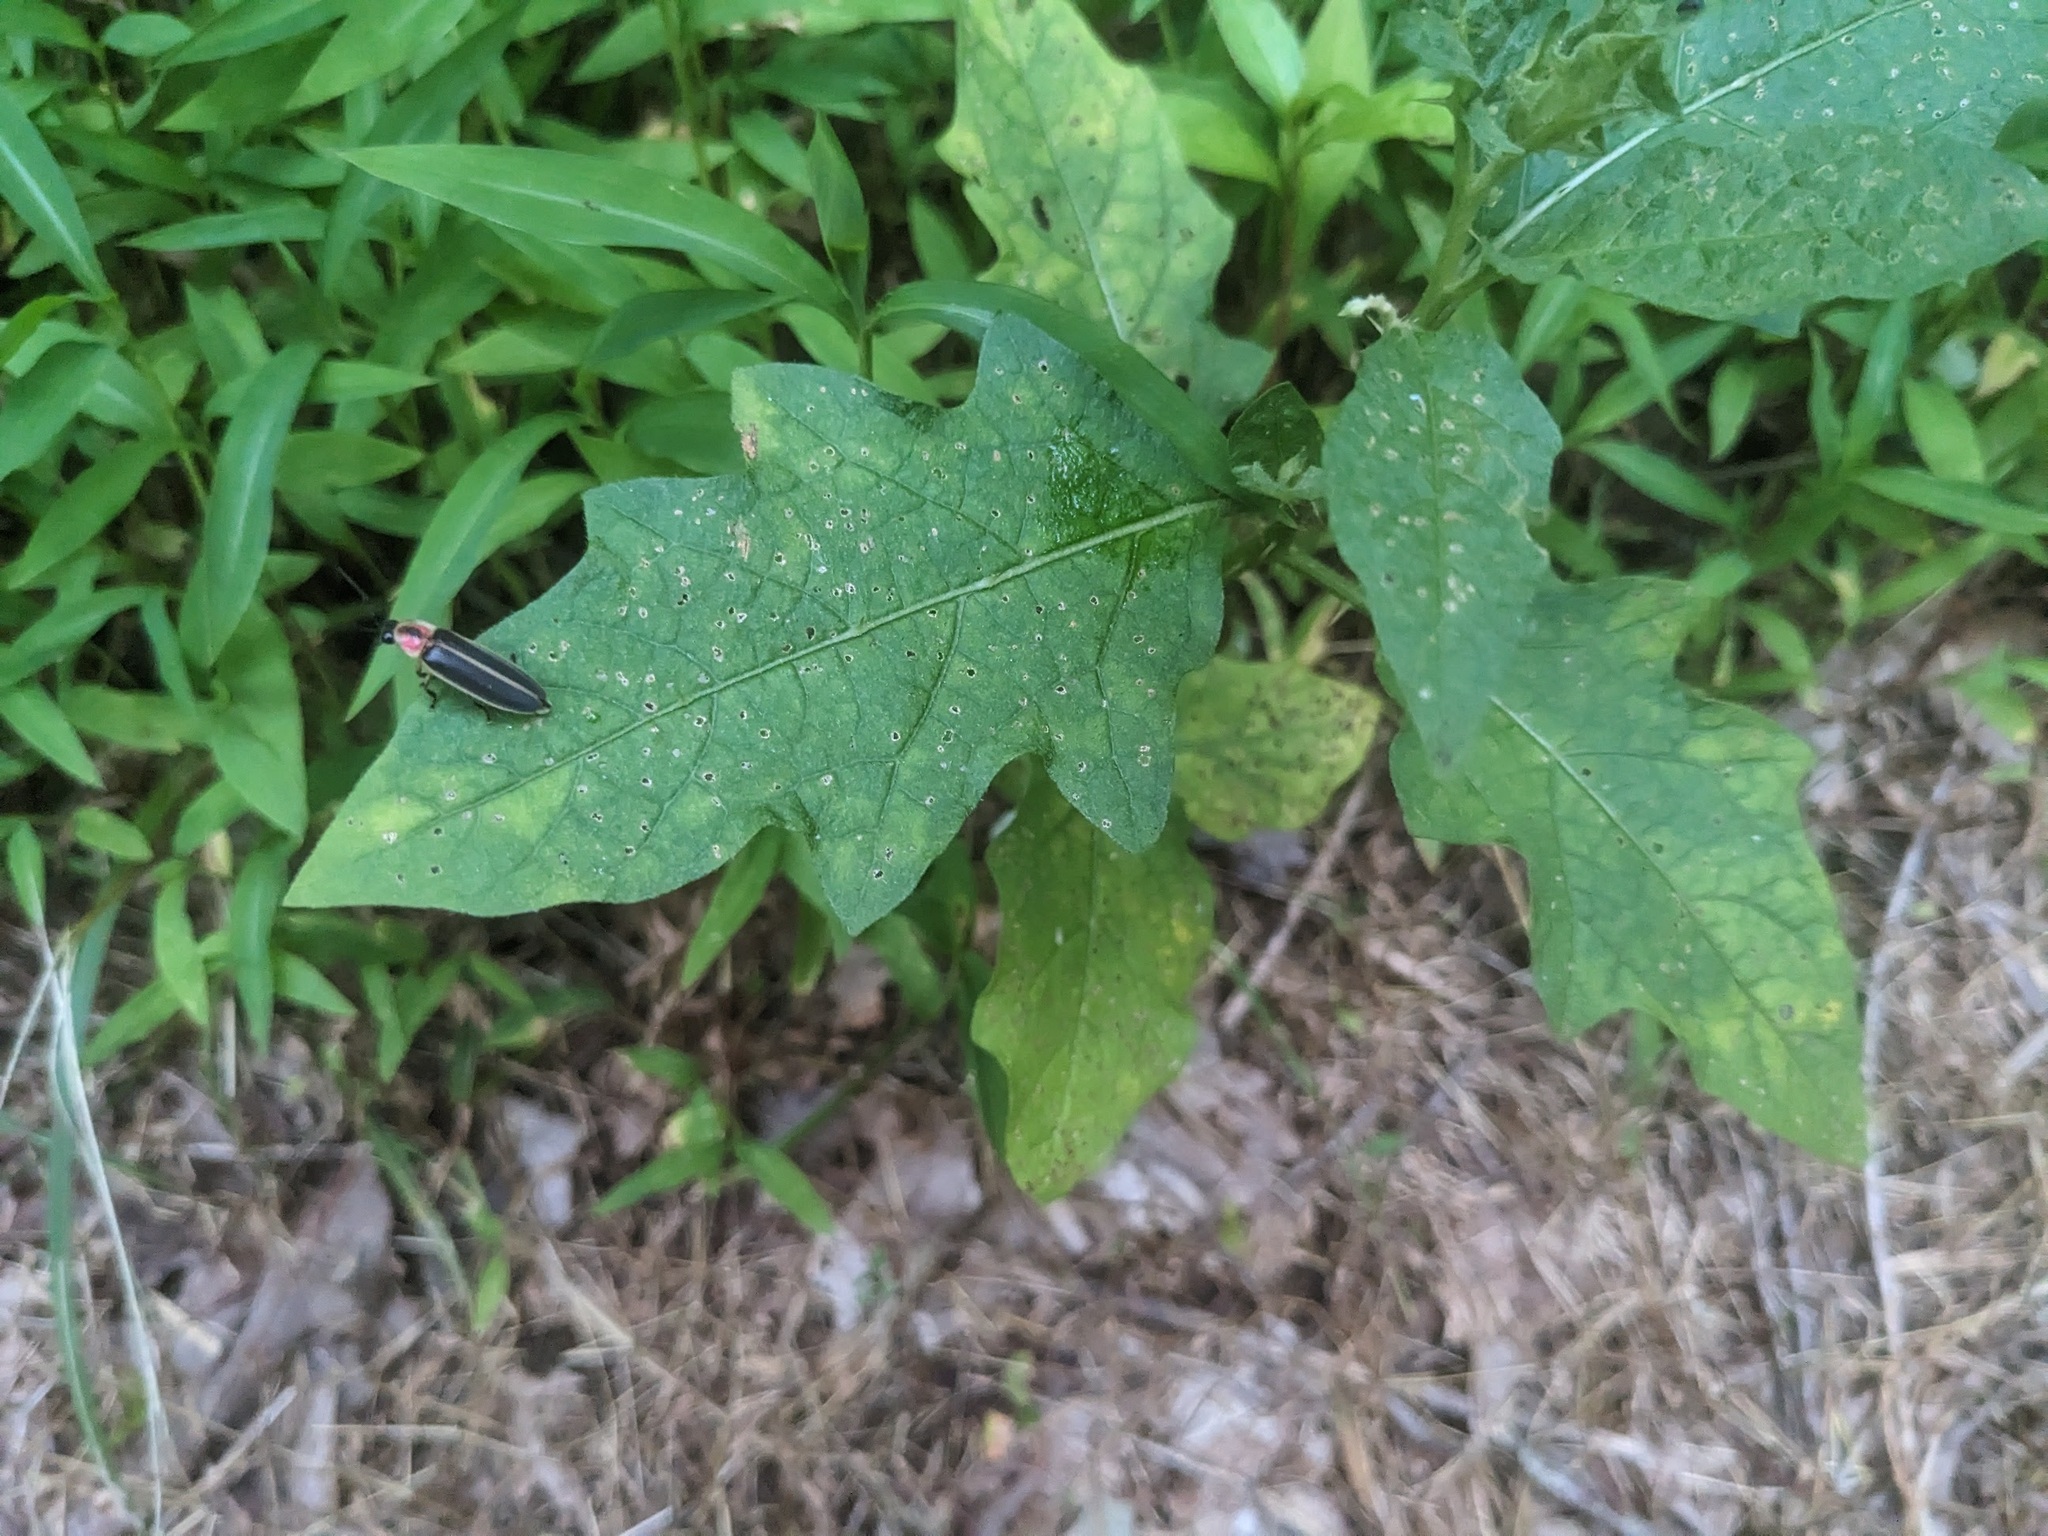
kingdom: Animalia
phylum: Arthropoda
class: Insecta
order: Coleoptera
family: Lampyridae
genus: Photinus
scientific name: Photinus pyralis
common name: Big dipper firefly
